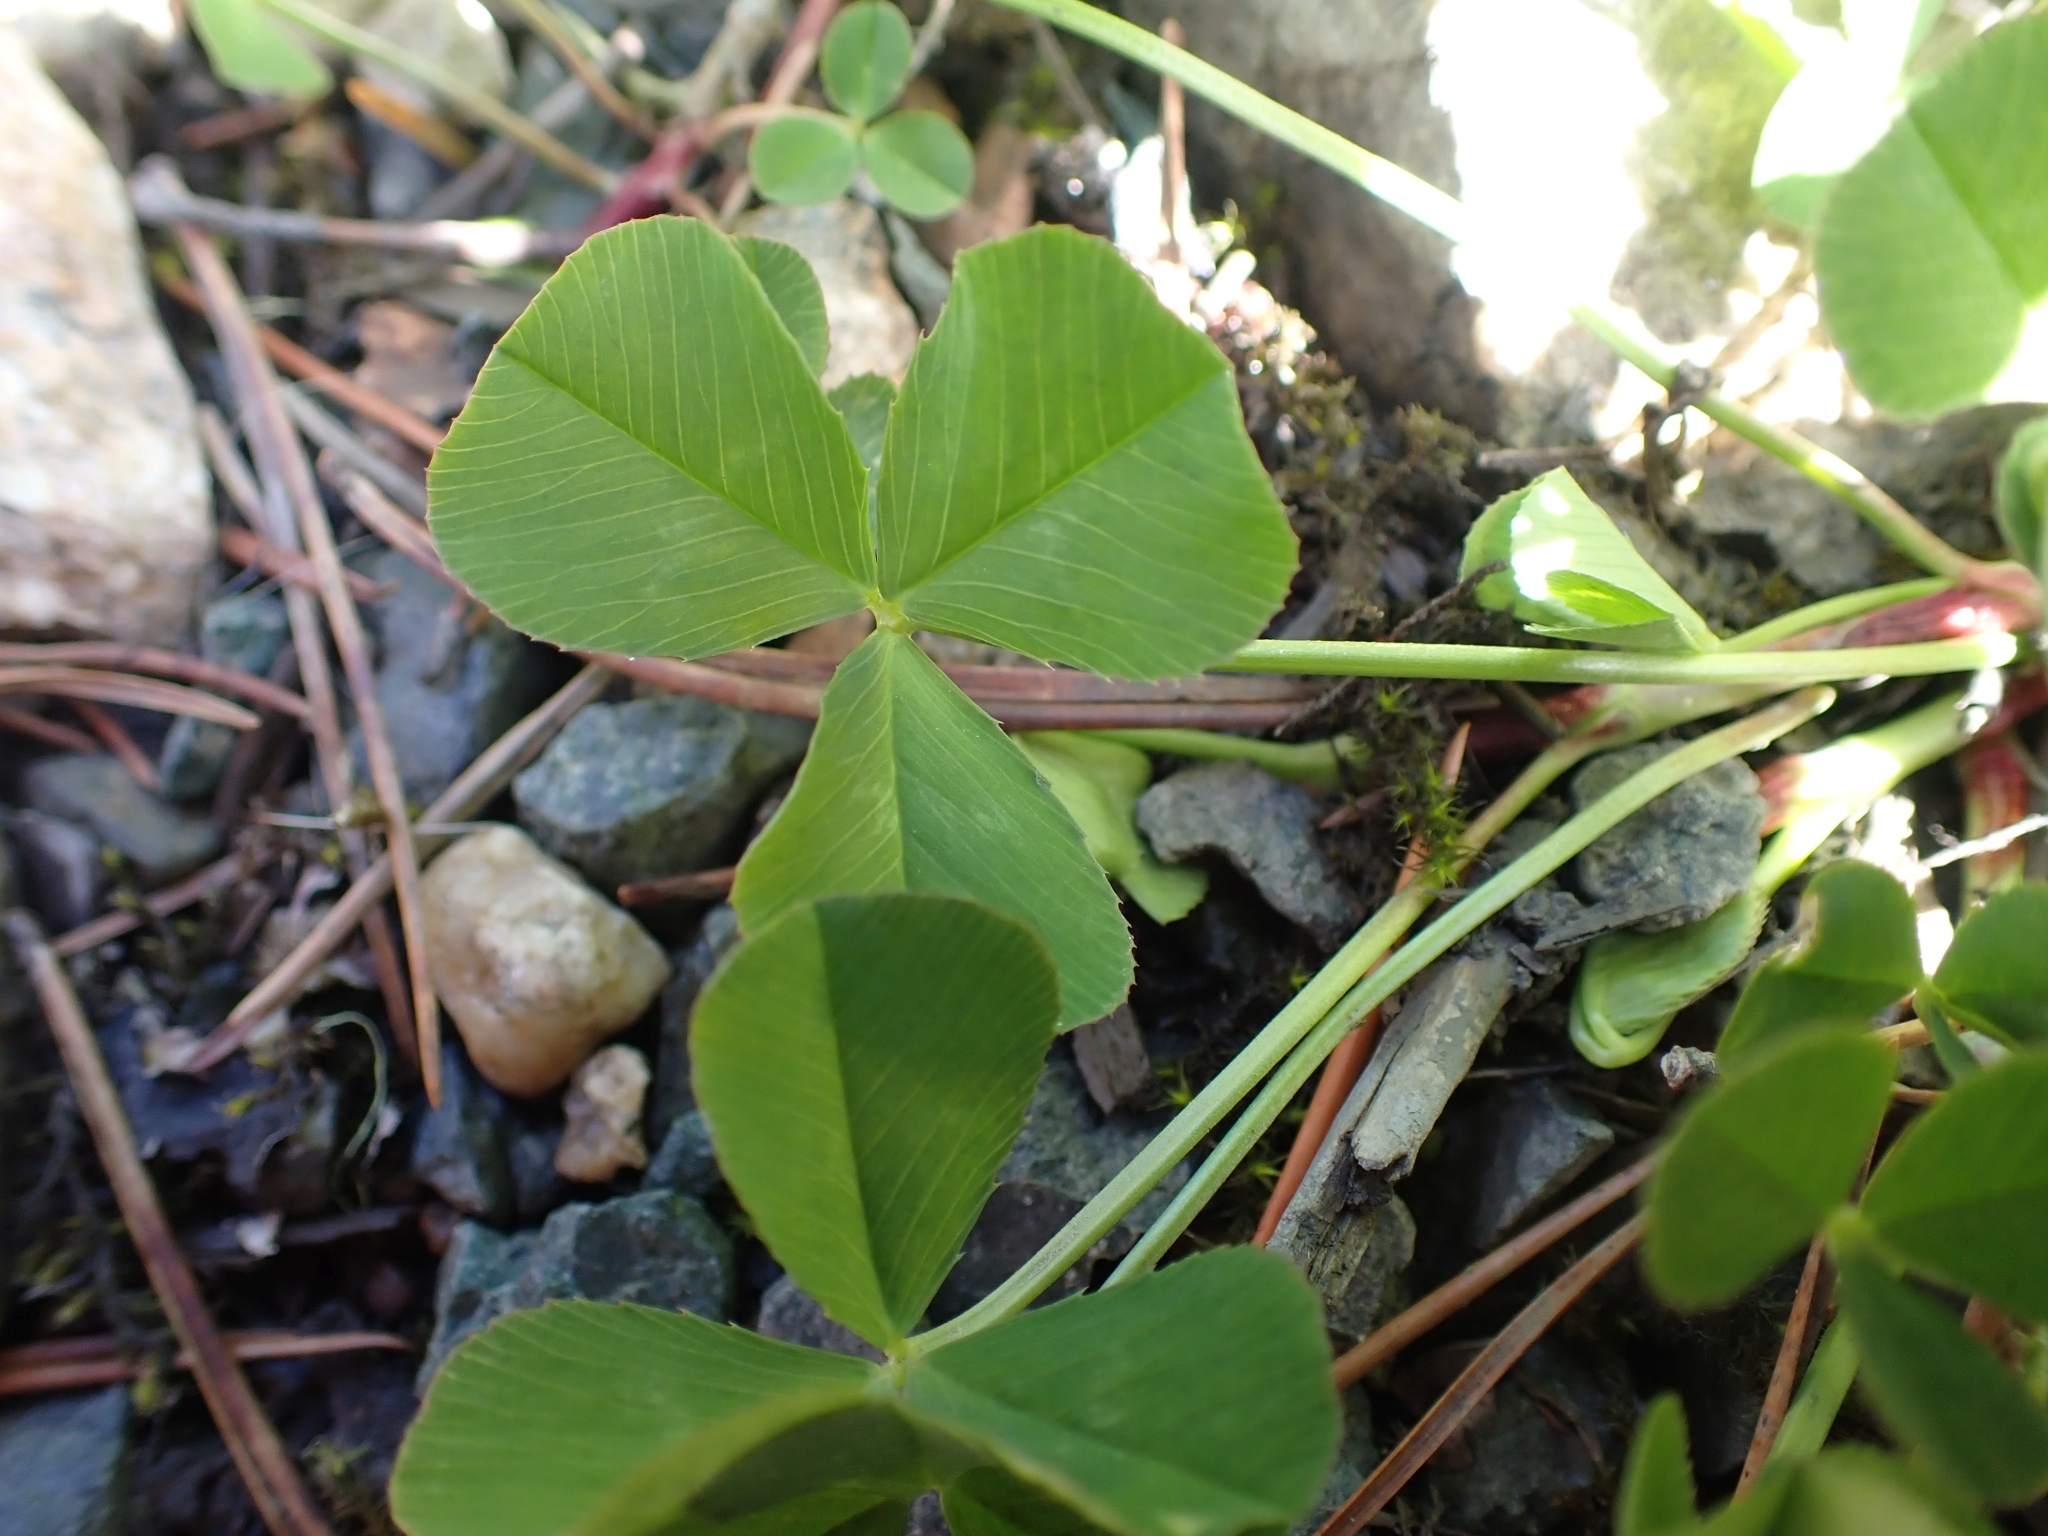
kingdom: Plantae
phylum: Tracheophyta
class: Magnoliopsida
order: Fabales
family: Fabaceae
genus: Trifolium
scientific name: Trifolium repens
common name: White clover
